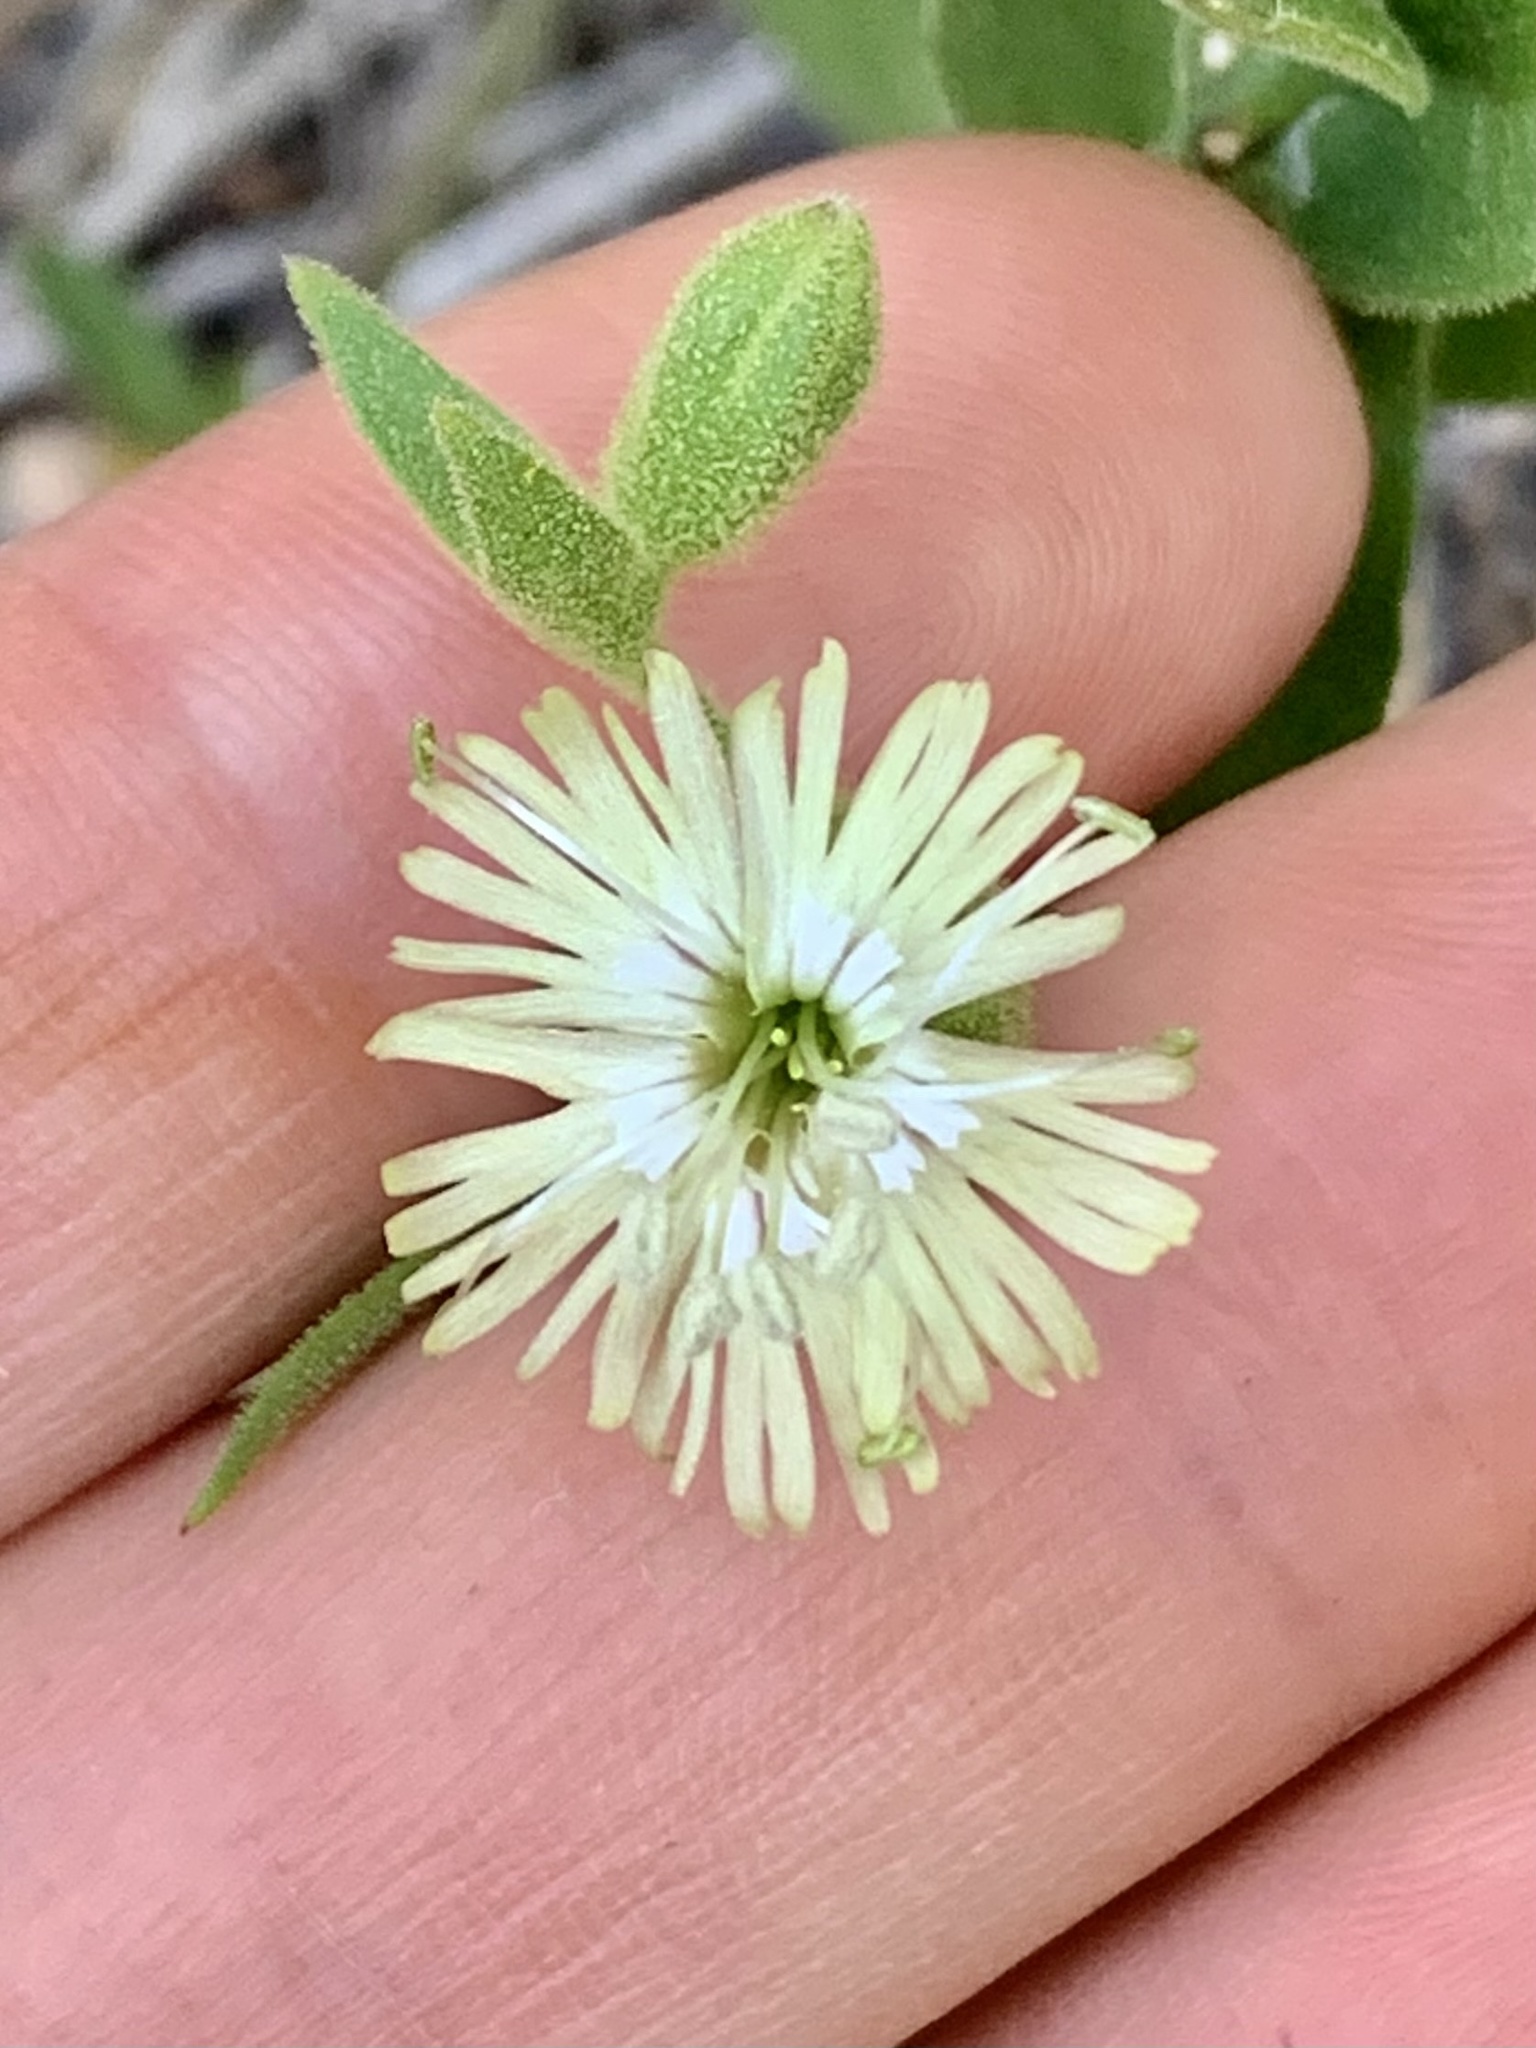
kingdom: Plantae
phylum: Tracheophyta
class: Magnoliopsida
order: Caryophyllales
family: Caryophyllaceae
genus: Silene
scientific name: Silene greenei
